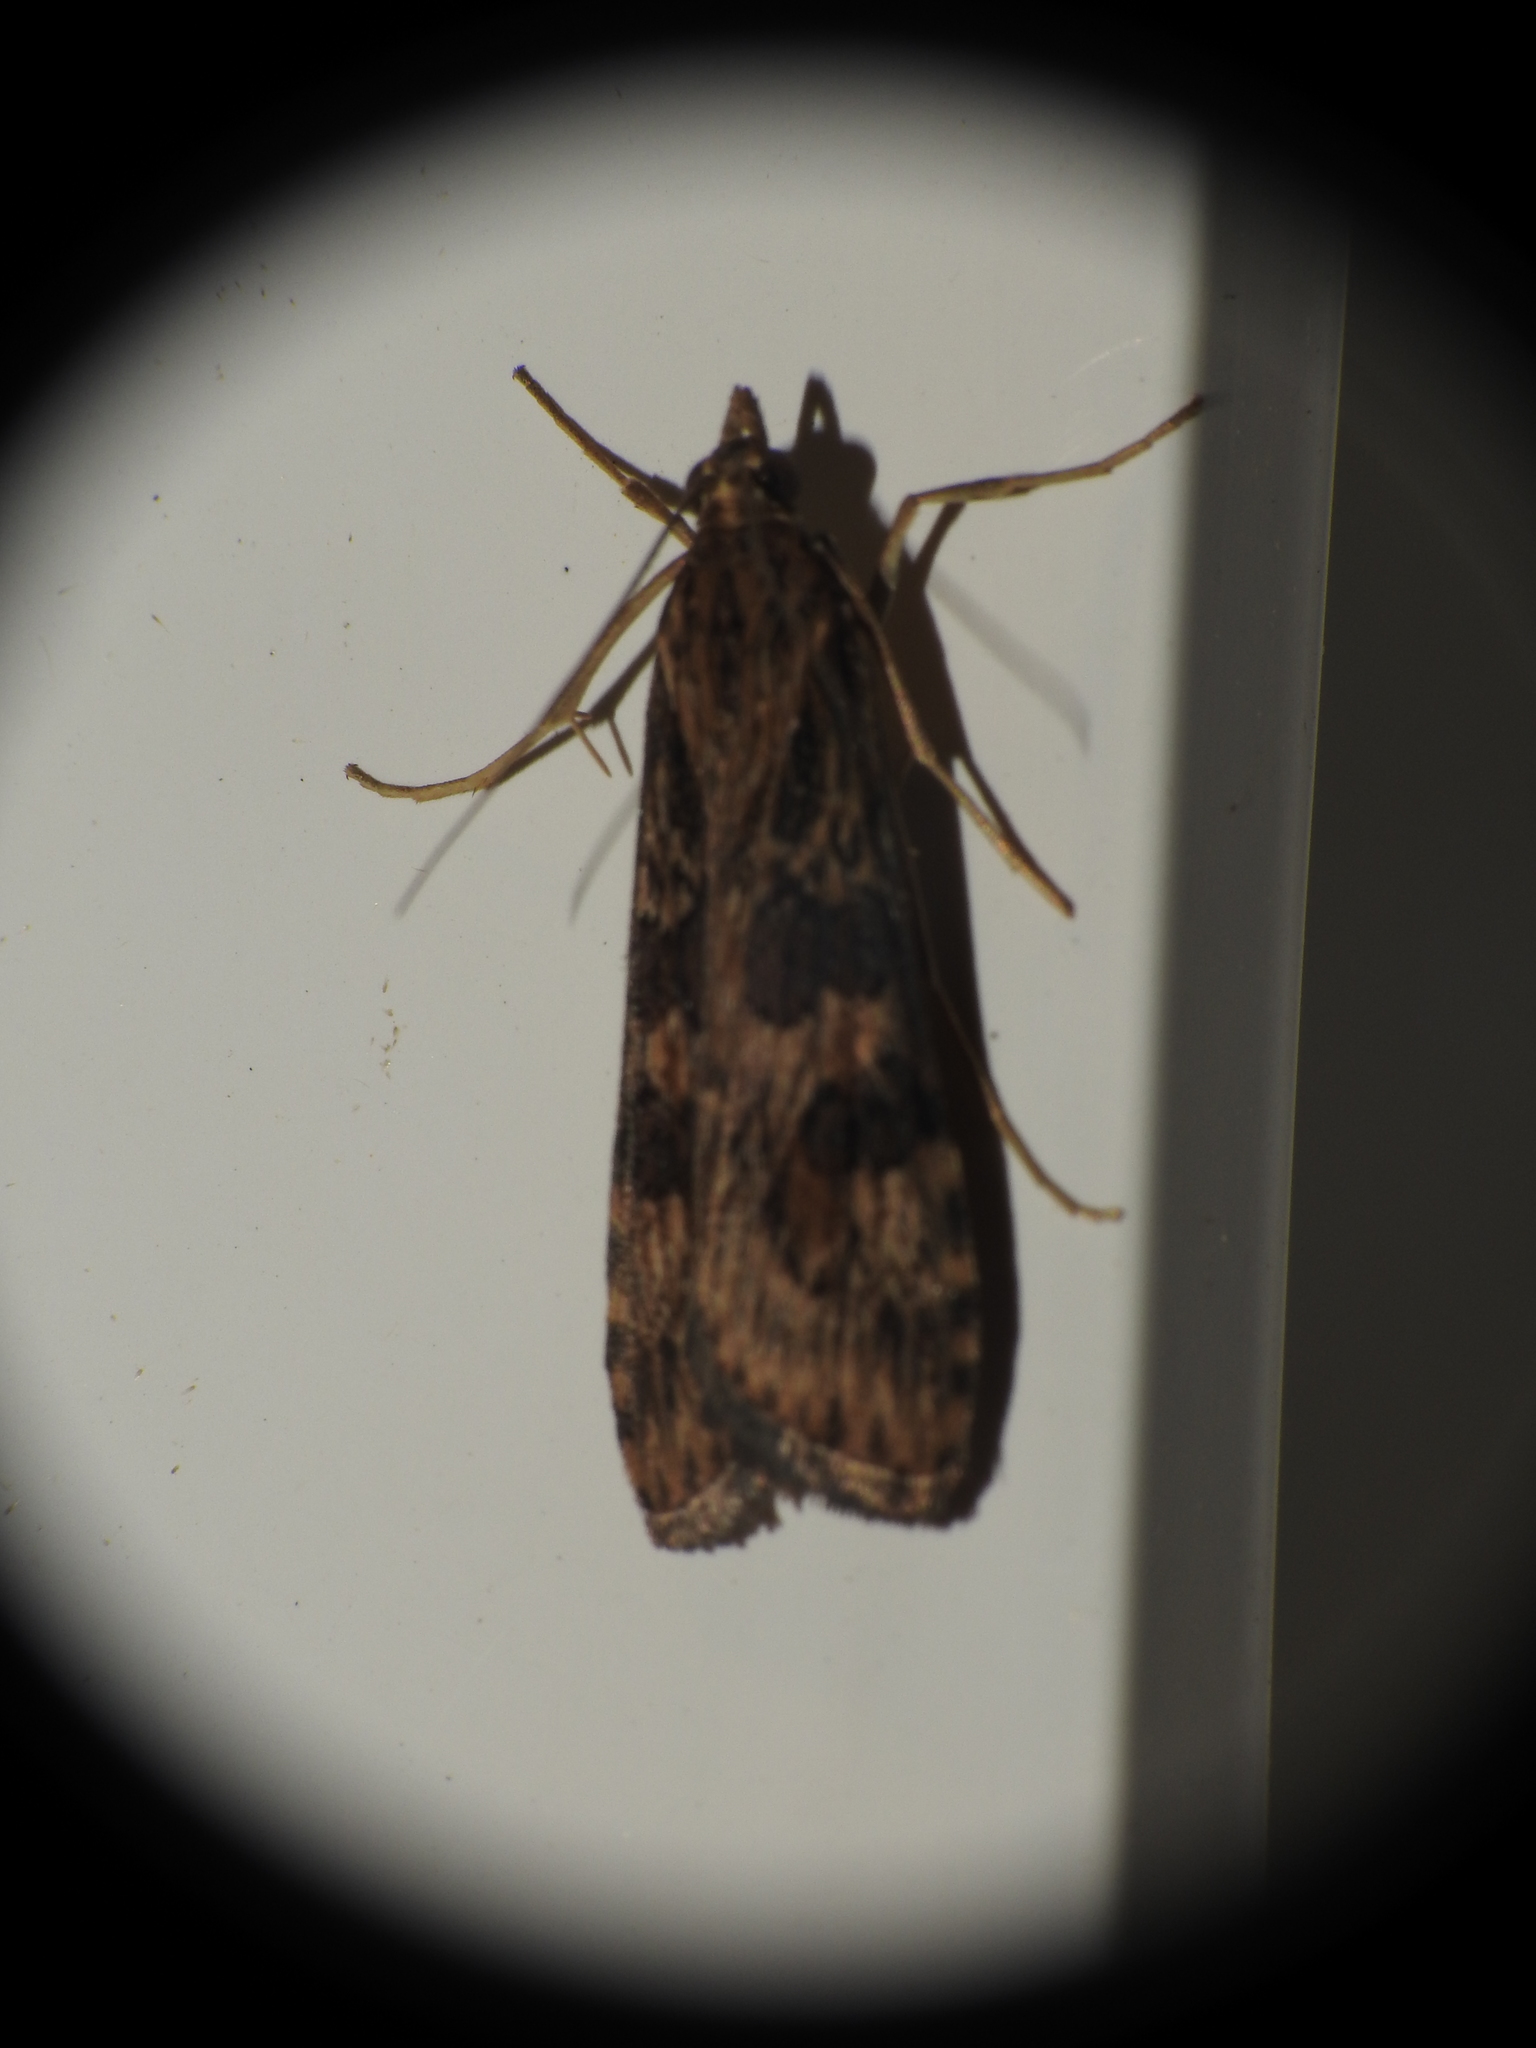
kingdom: Animalia
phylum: Arthropoda
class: Insecta
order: Lepidoptera
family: Crambidae
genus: Nomophila
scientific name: Nomophila nearctica
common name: American rush veneer
